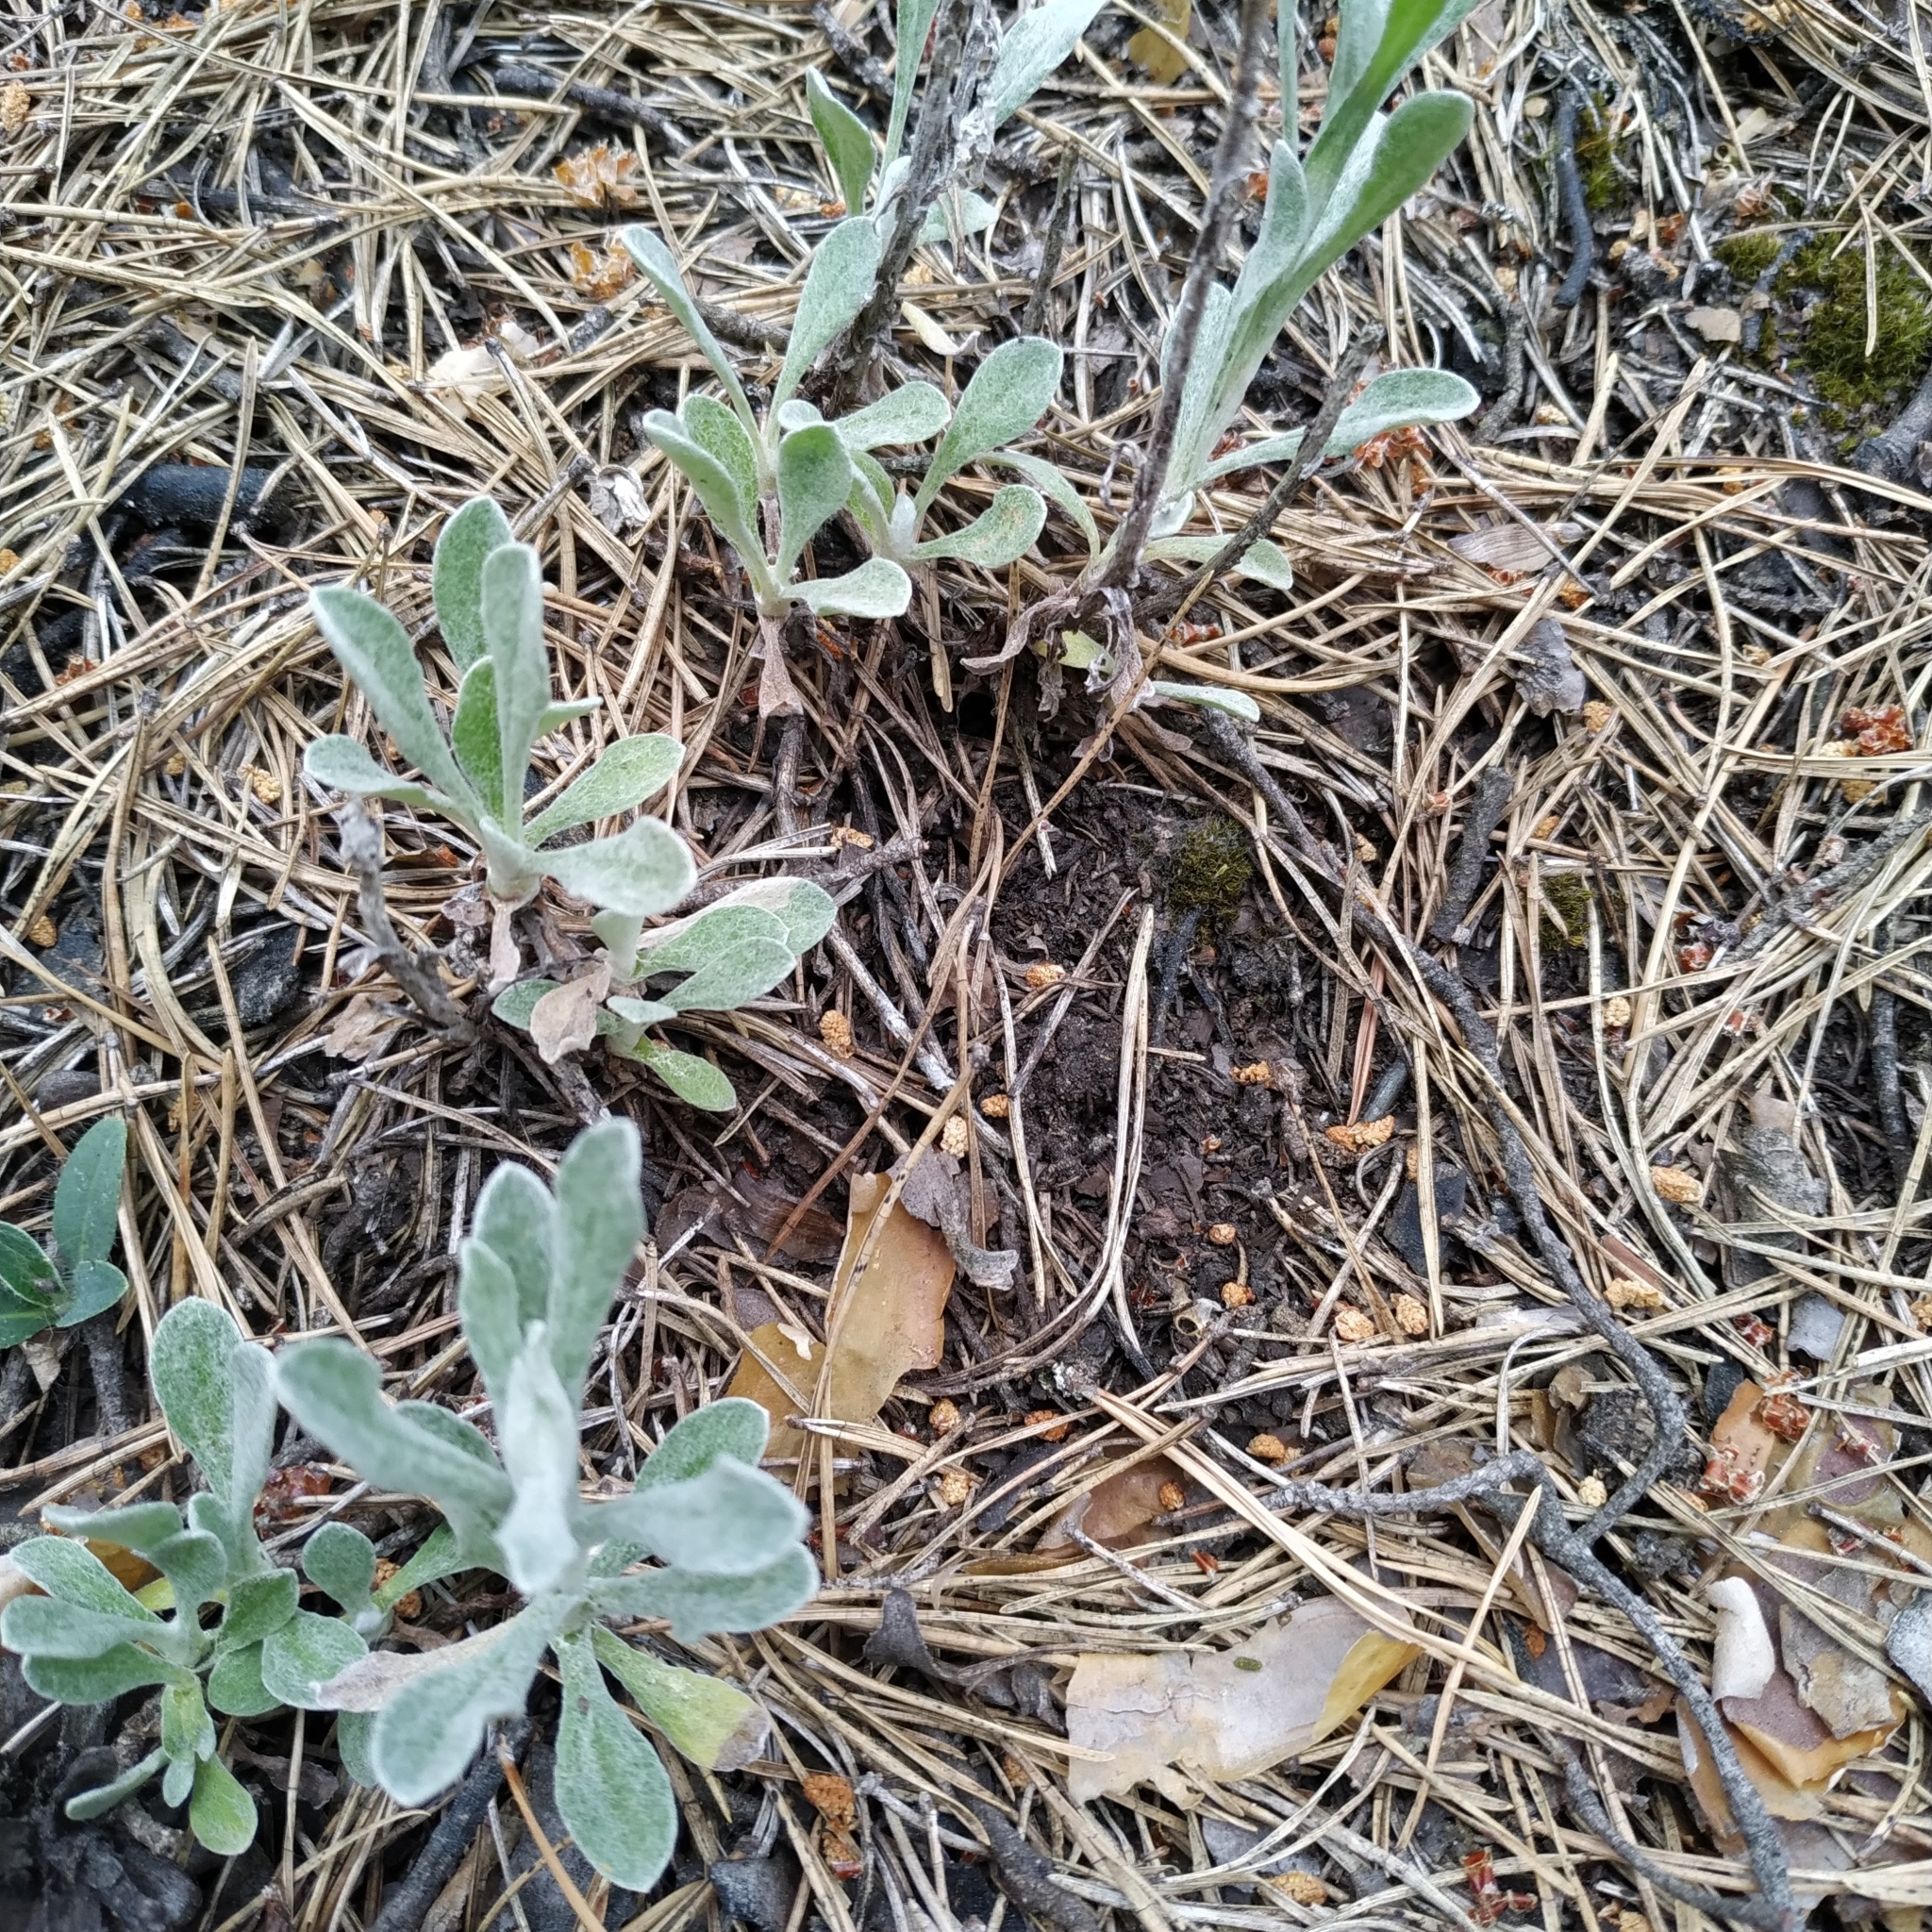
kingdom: Plantae
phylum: Tracheophyta
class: Magnoliopsida
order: Asterales
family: Asteraceae
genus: Antennaria
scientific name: Antennaria dioica
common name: Mountain everlasting
